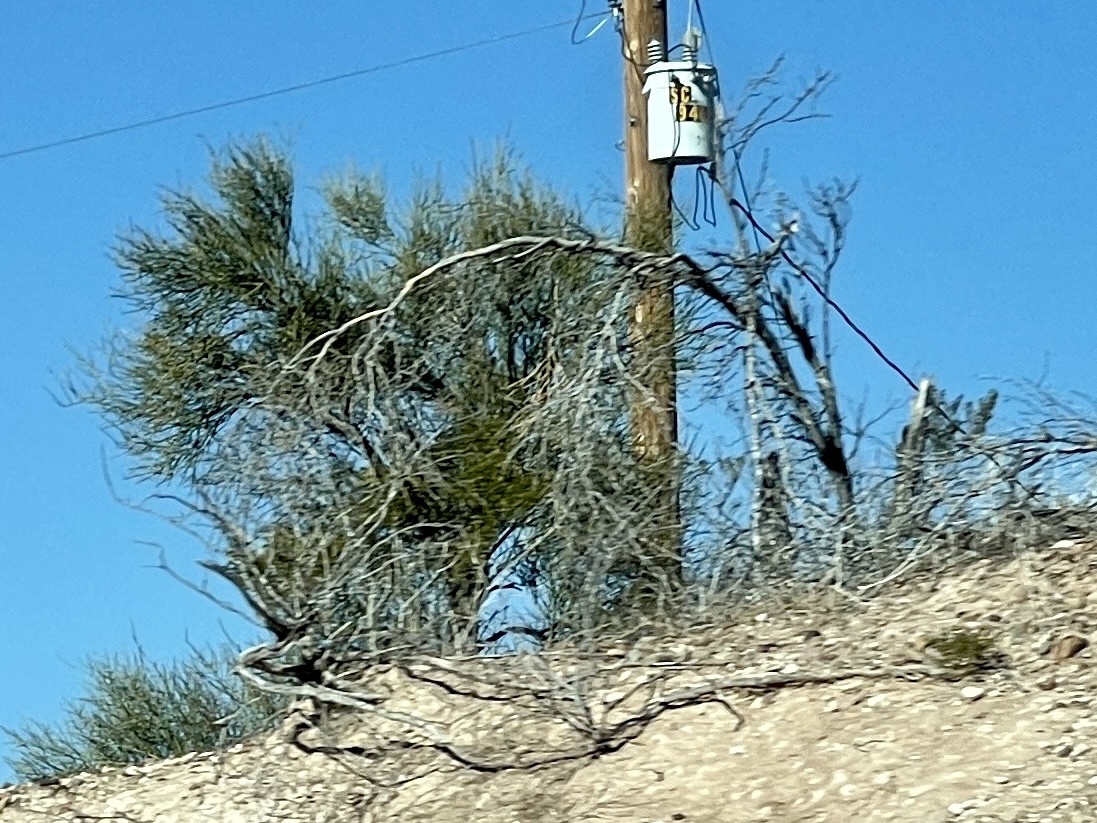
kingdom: Plantae
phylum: Tracheophyta
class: Magnoliopsida
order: Celastrales
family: Celastraceae
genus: Canotia
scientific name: Canotia holacantha
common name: Crucifixion thorns
